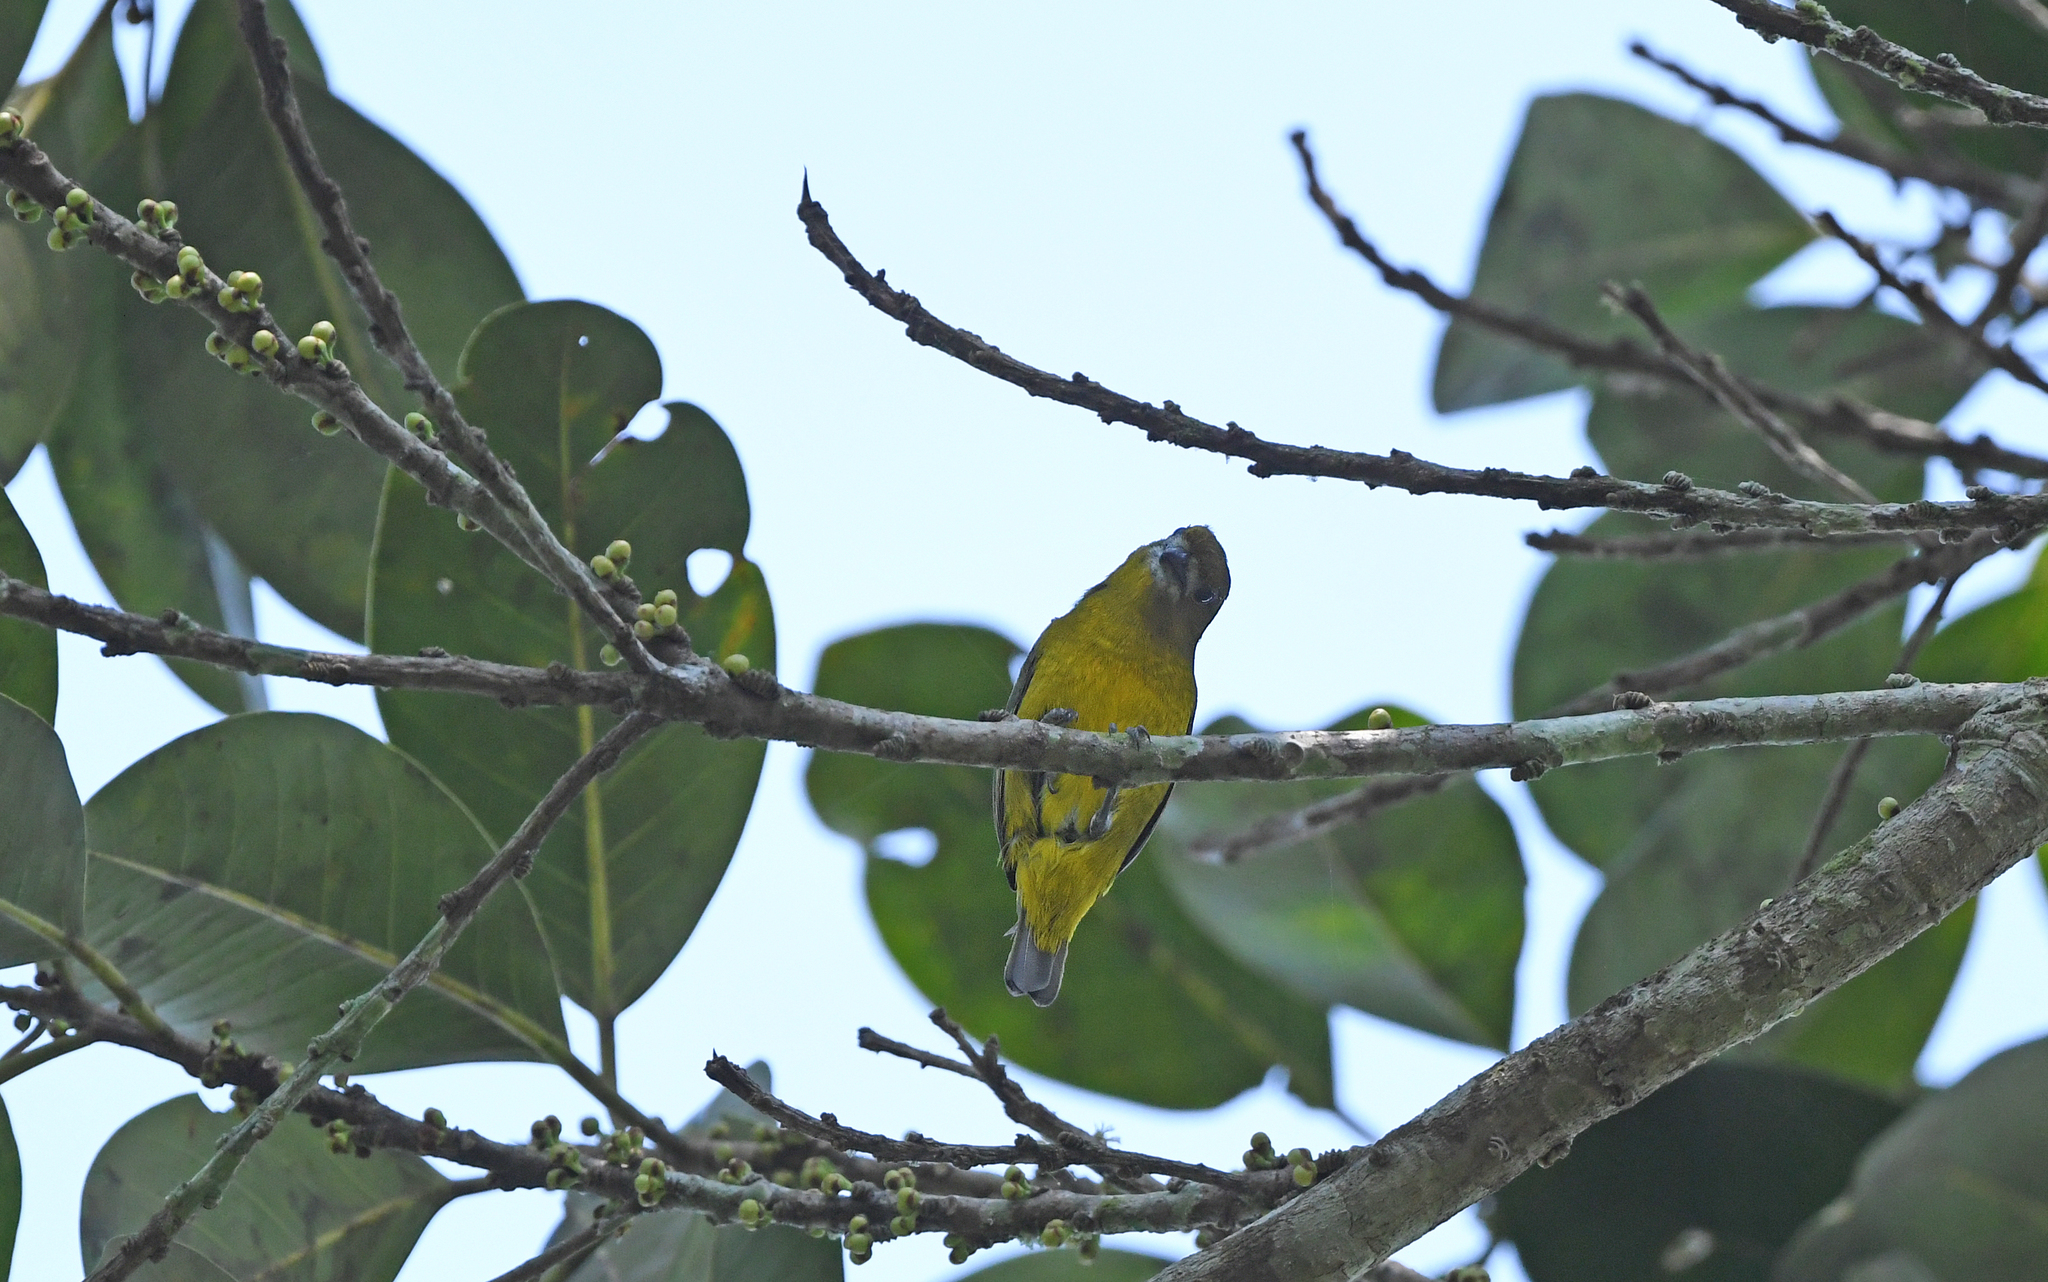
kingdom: Animalia
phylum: Chordata
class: Aves
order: Passeriformes
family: Fringillidae
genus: Euphonia
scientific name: Euphonia chrysopasta
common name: White-lored euphonia
